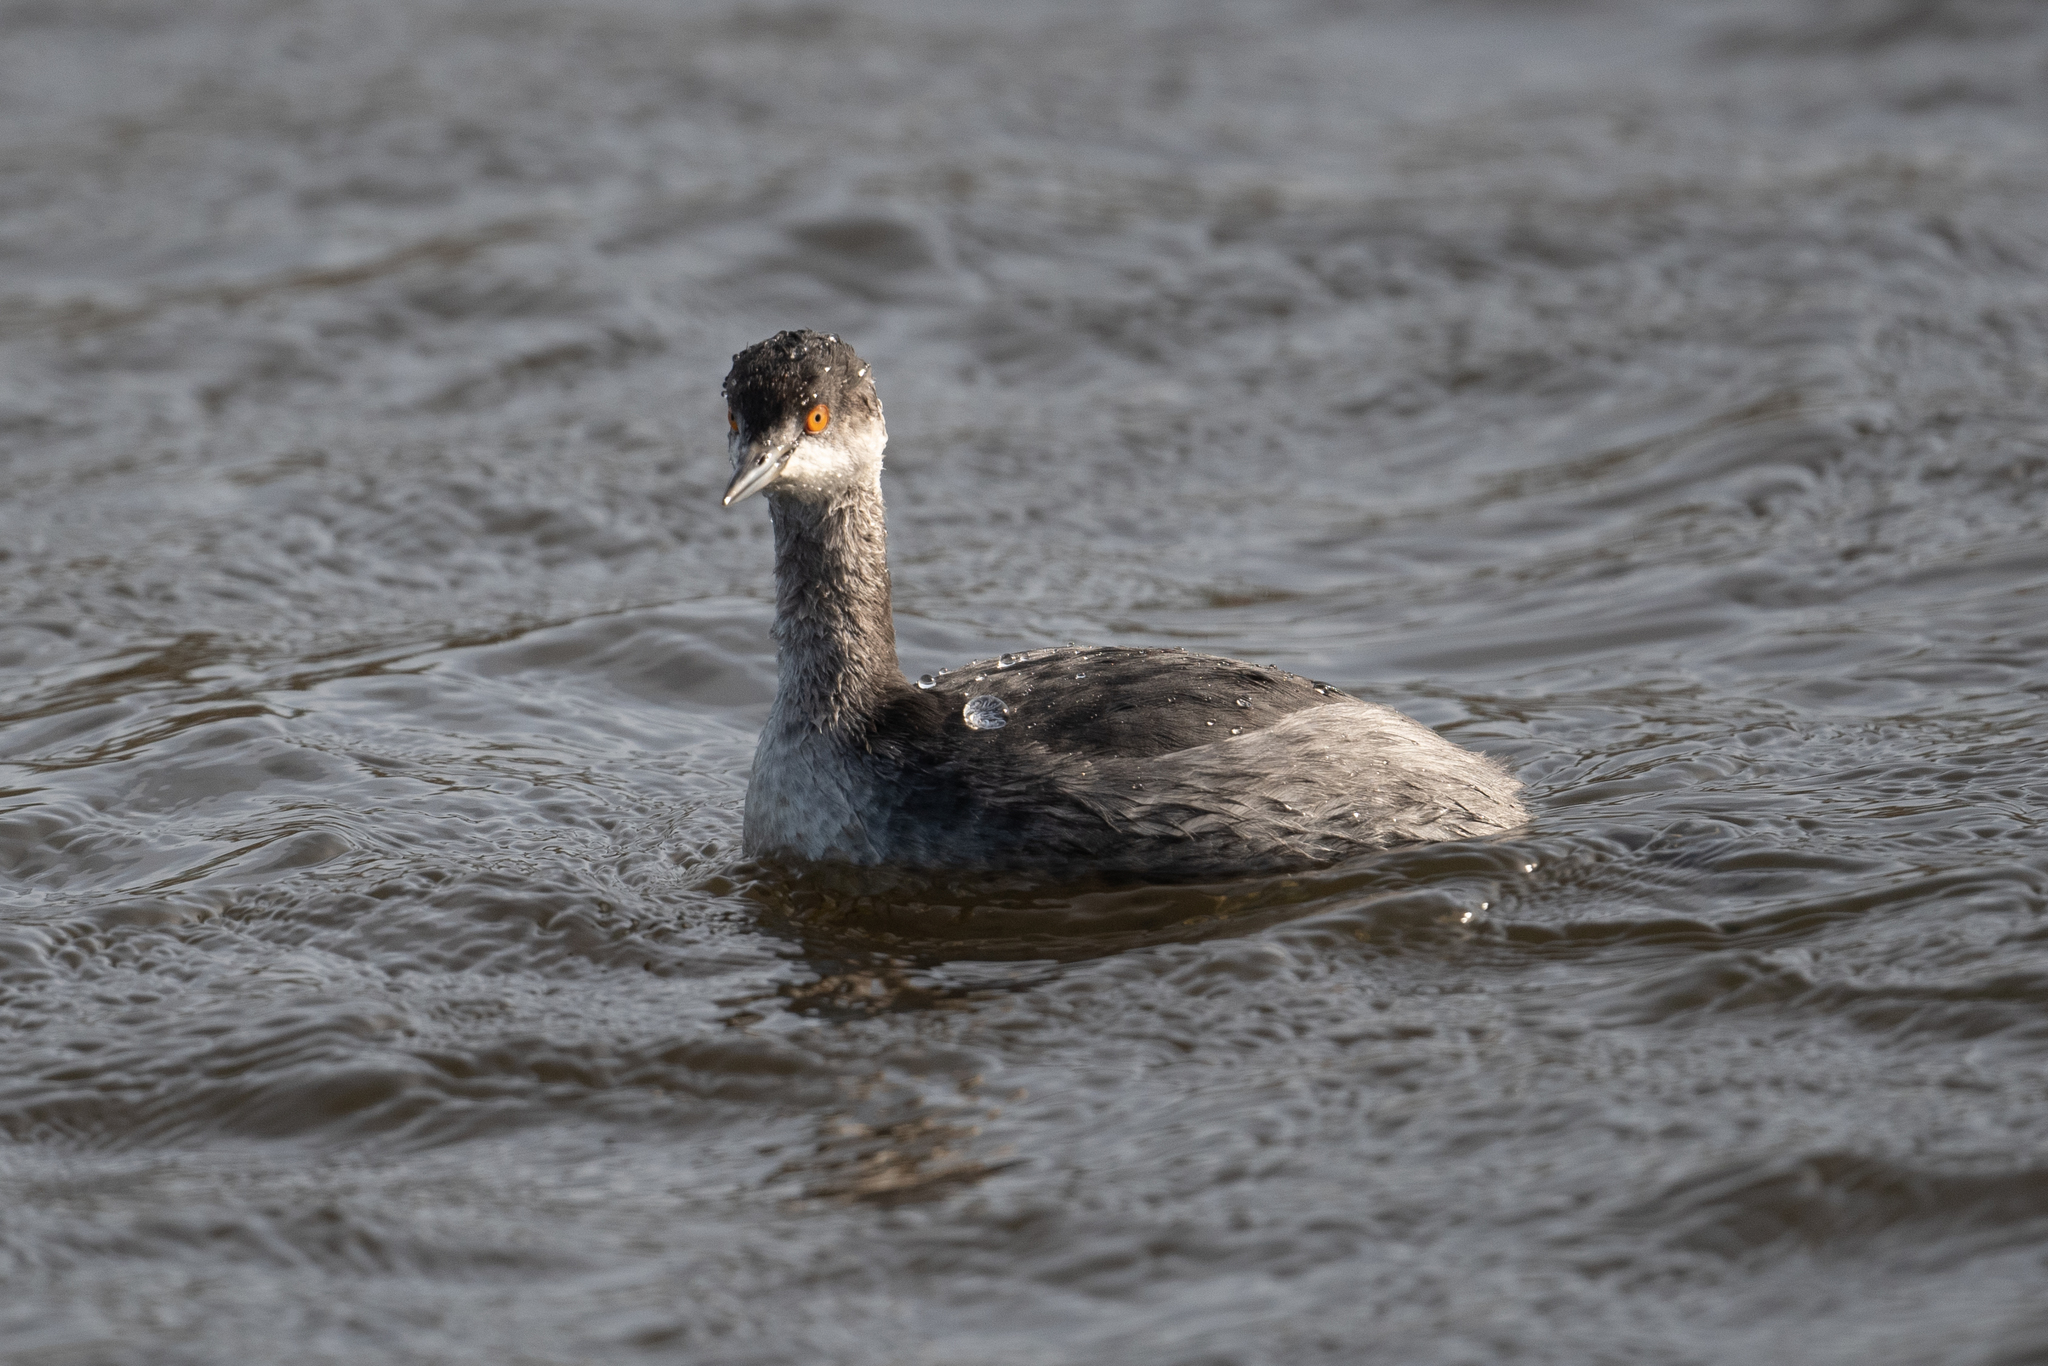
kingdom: Animalia
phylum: Chordata
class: Aves
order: Podicipediformes
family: Podicipedidae
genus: Podiceps
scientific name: Podiceps nigricollis
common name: Black-necked grebe
